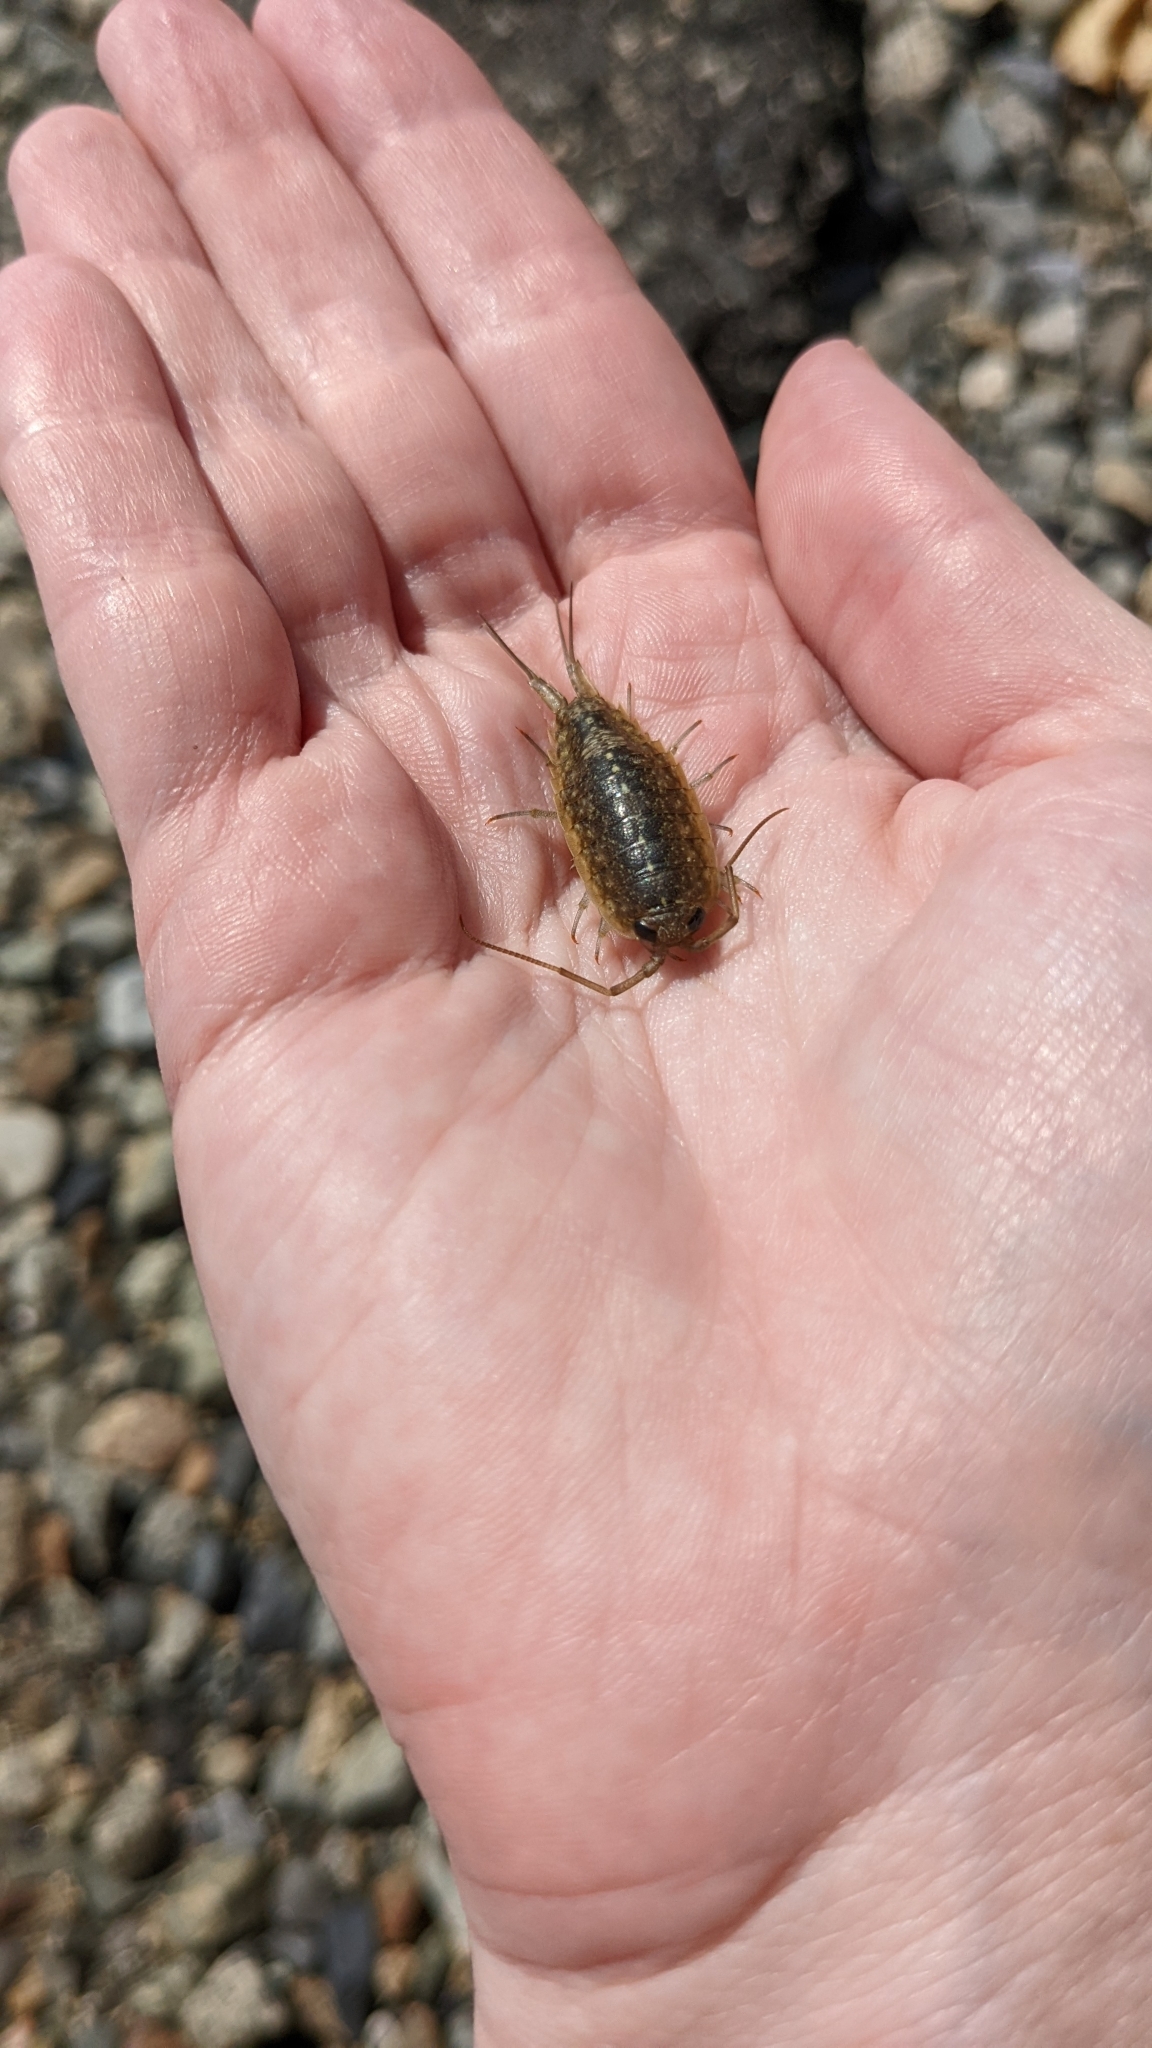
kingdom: Animalia
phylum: Arthropoda
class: Malacostraca
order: Isopoda
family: Ligiidae
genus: Ligia
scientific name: Ligia occidentalis
